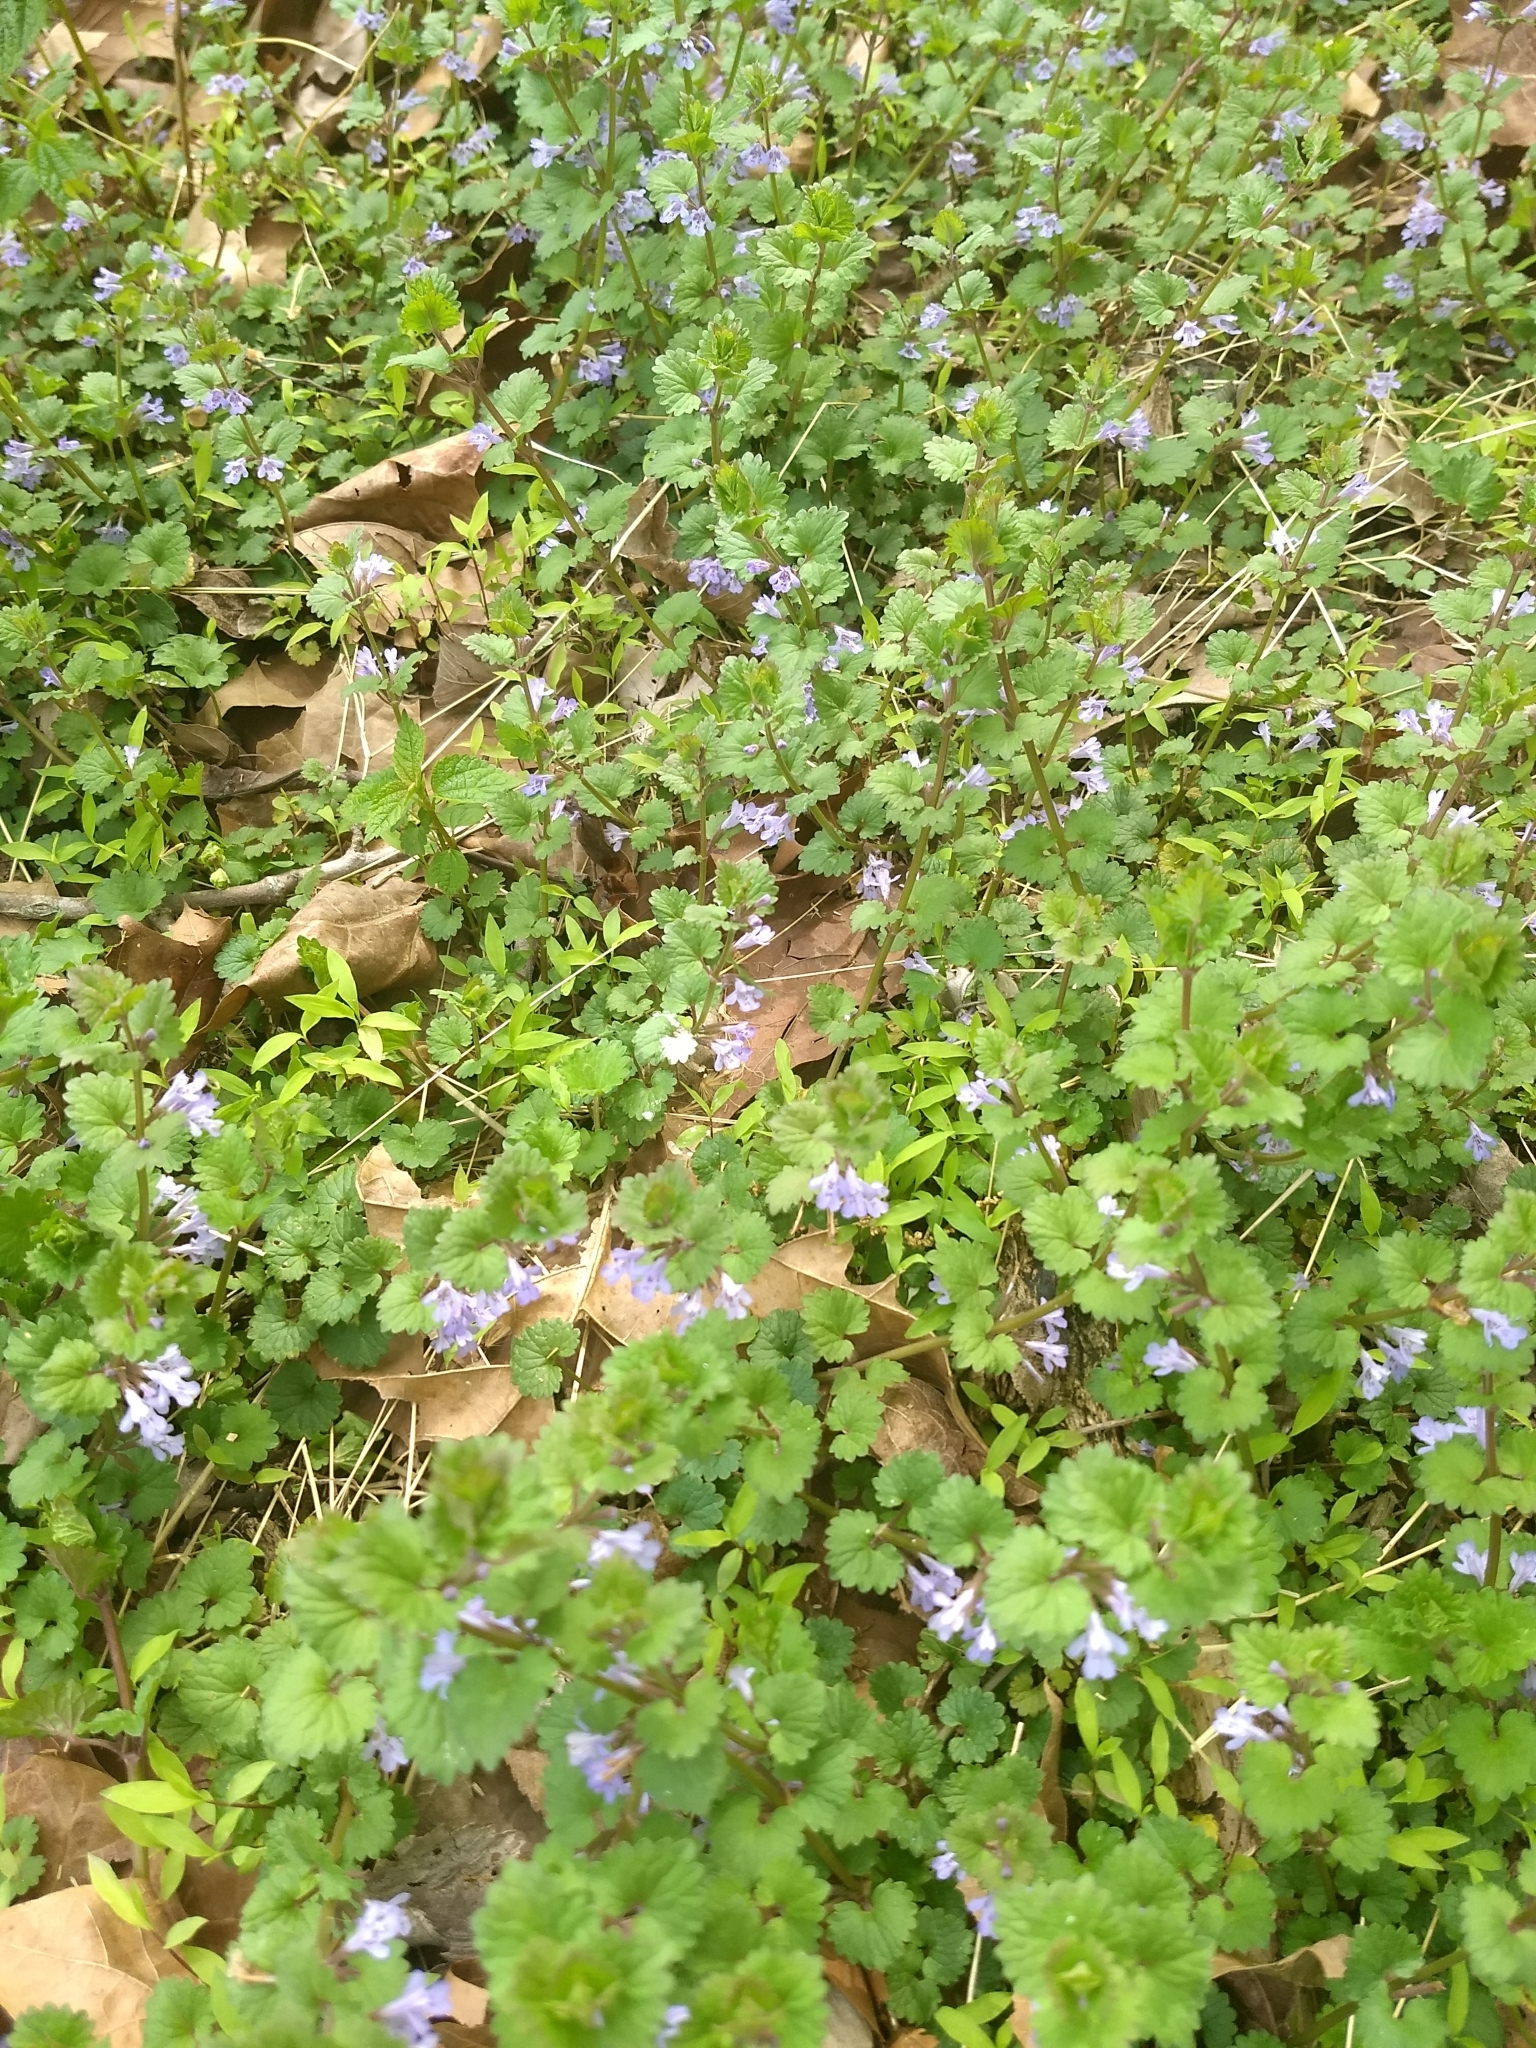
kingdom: Plantae
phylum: Tracheophyta
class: Magnoliopsida
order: Lamiales
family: Lamiaceae
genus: Glechoma
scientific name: Glechoma hederacea
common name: Ground ivy
